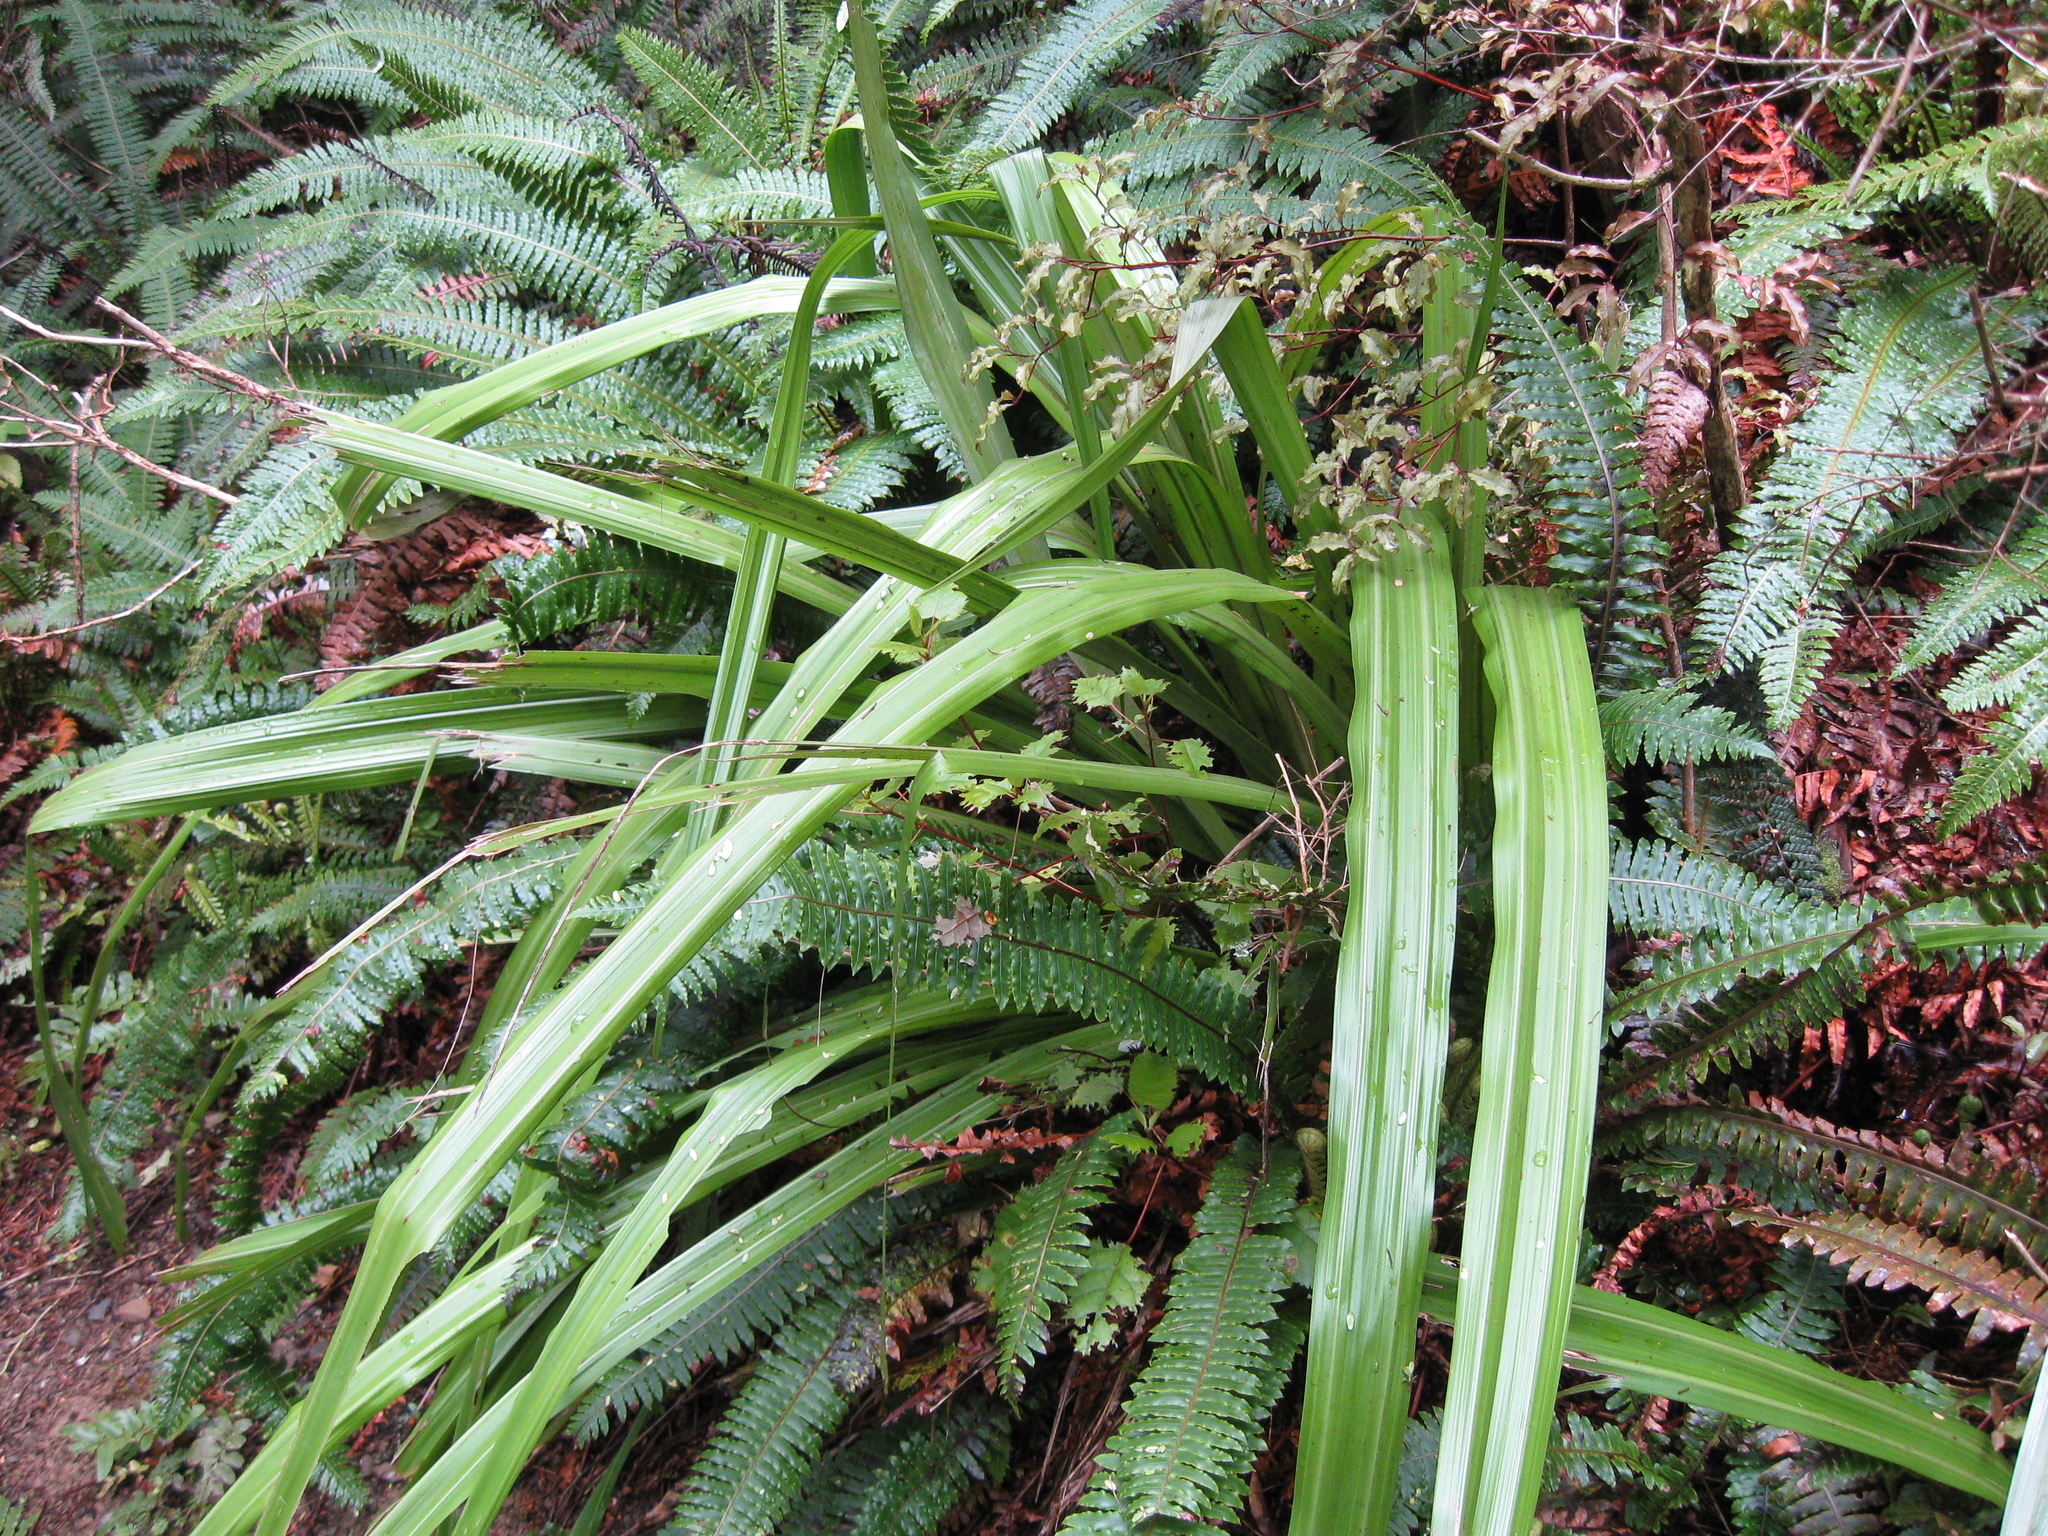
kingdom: Plantae
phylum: Tracheophyta
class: Liliopsida
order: Asparagales
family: Asteliaceae
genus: Astelia
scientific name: Astelia fragrans
